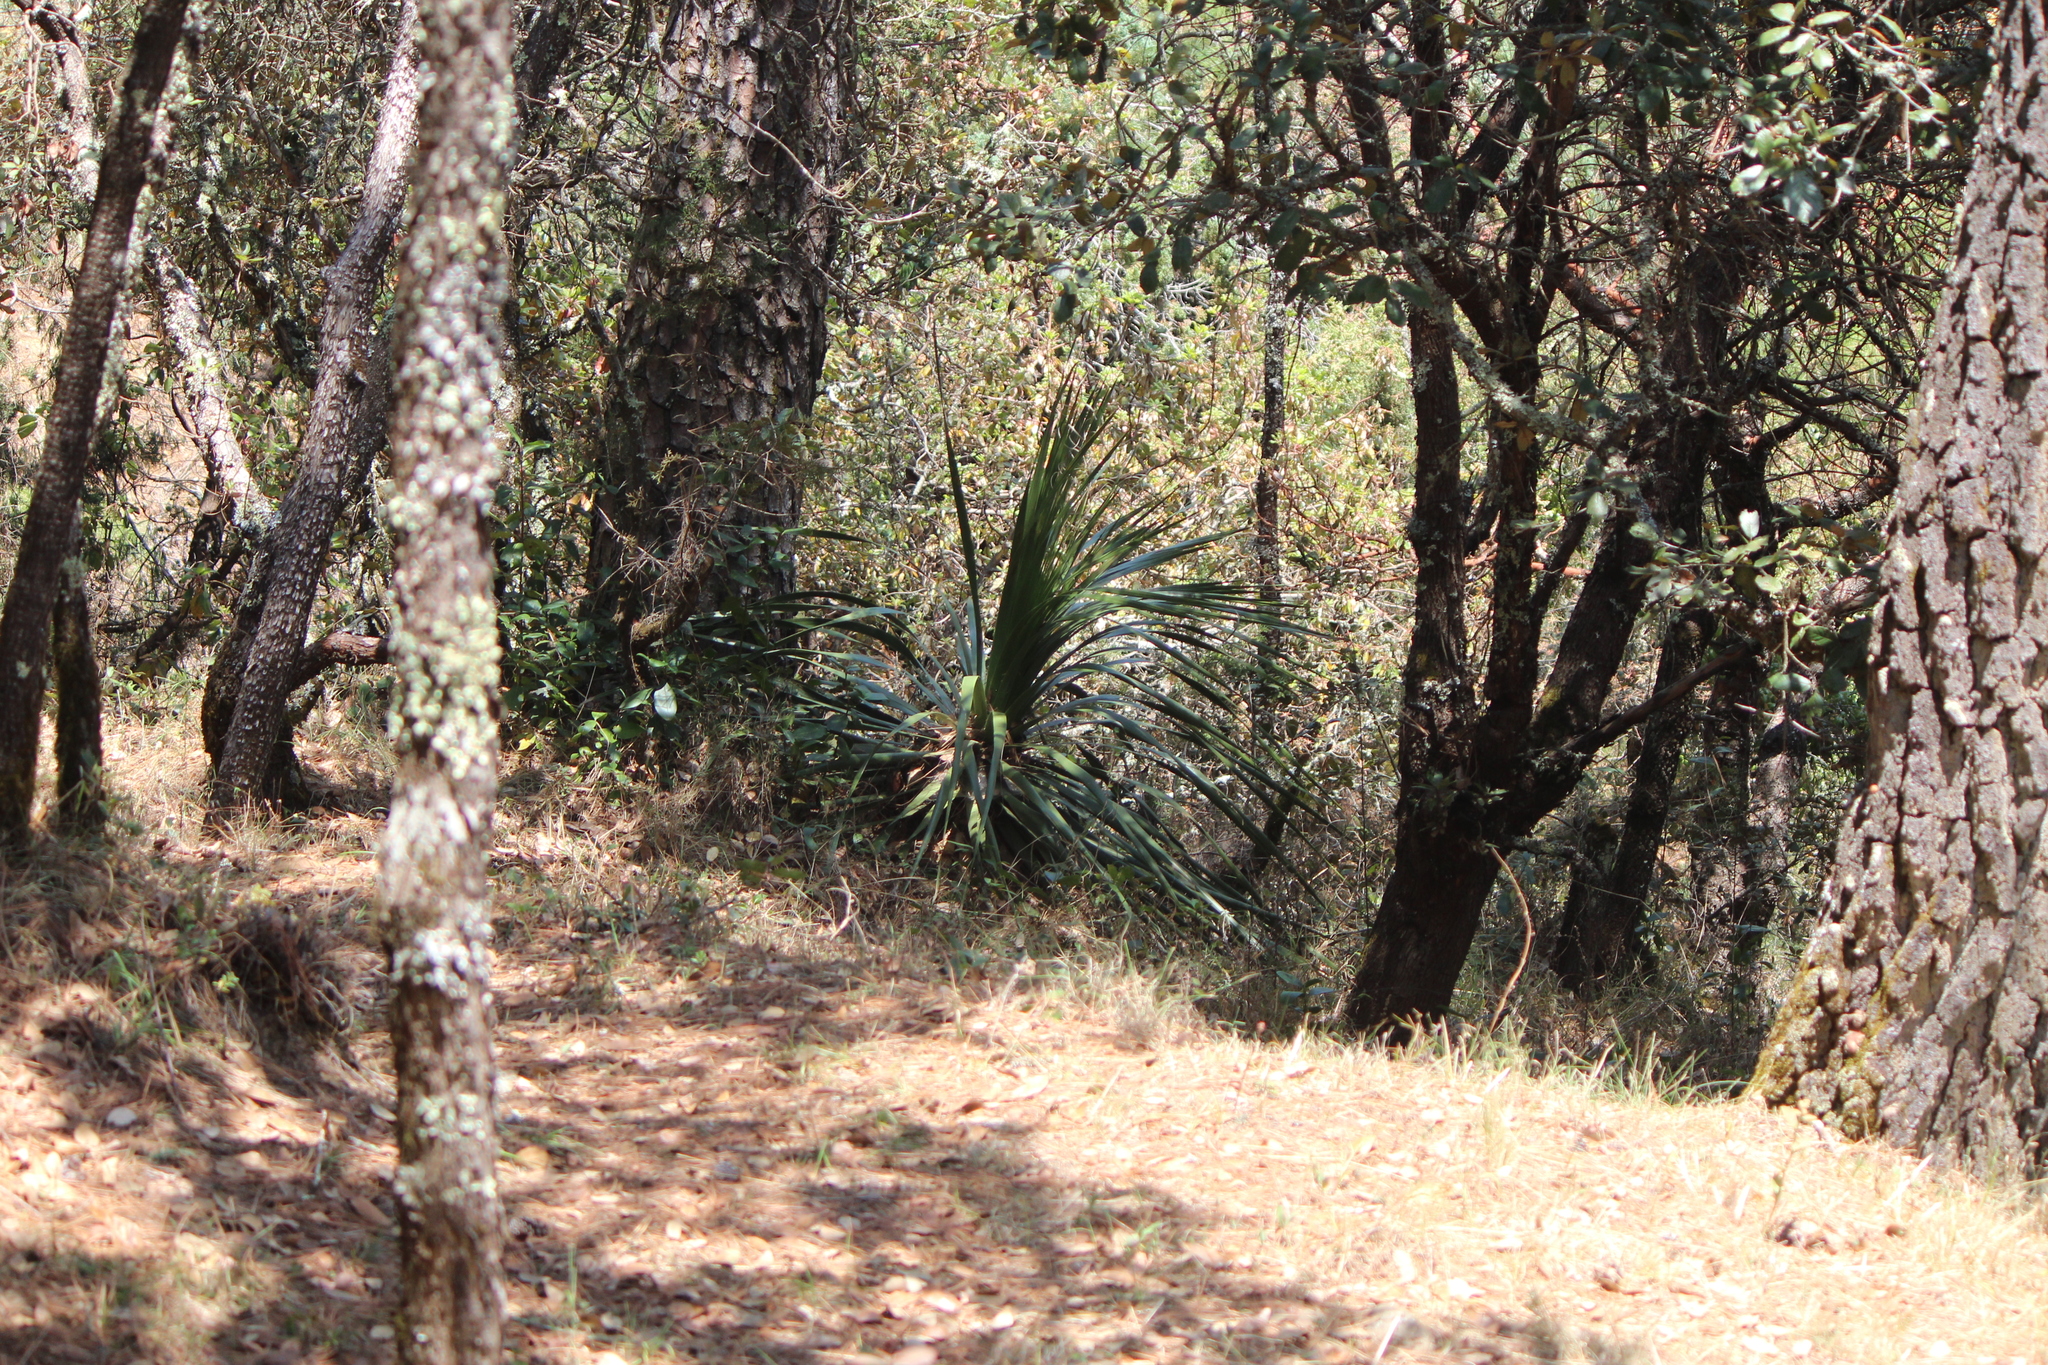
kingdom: Plantae
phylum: Tracheophyta
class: Liliopsida
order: Asparagales
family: Asparagaceae
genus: Nolina
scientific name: Nolina parviflora
